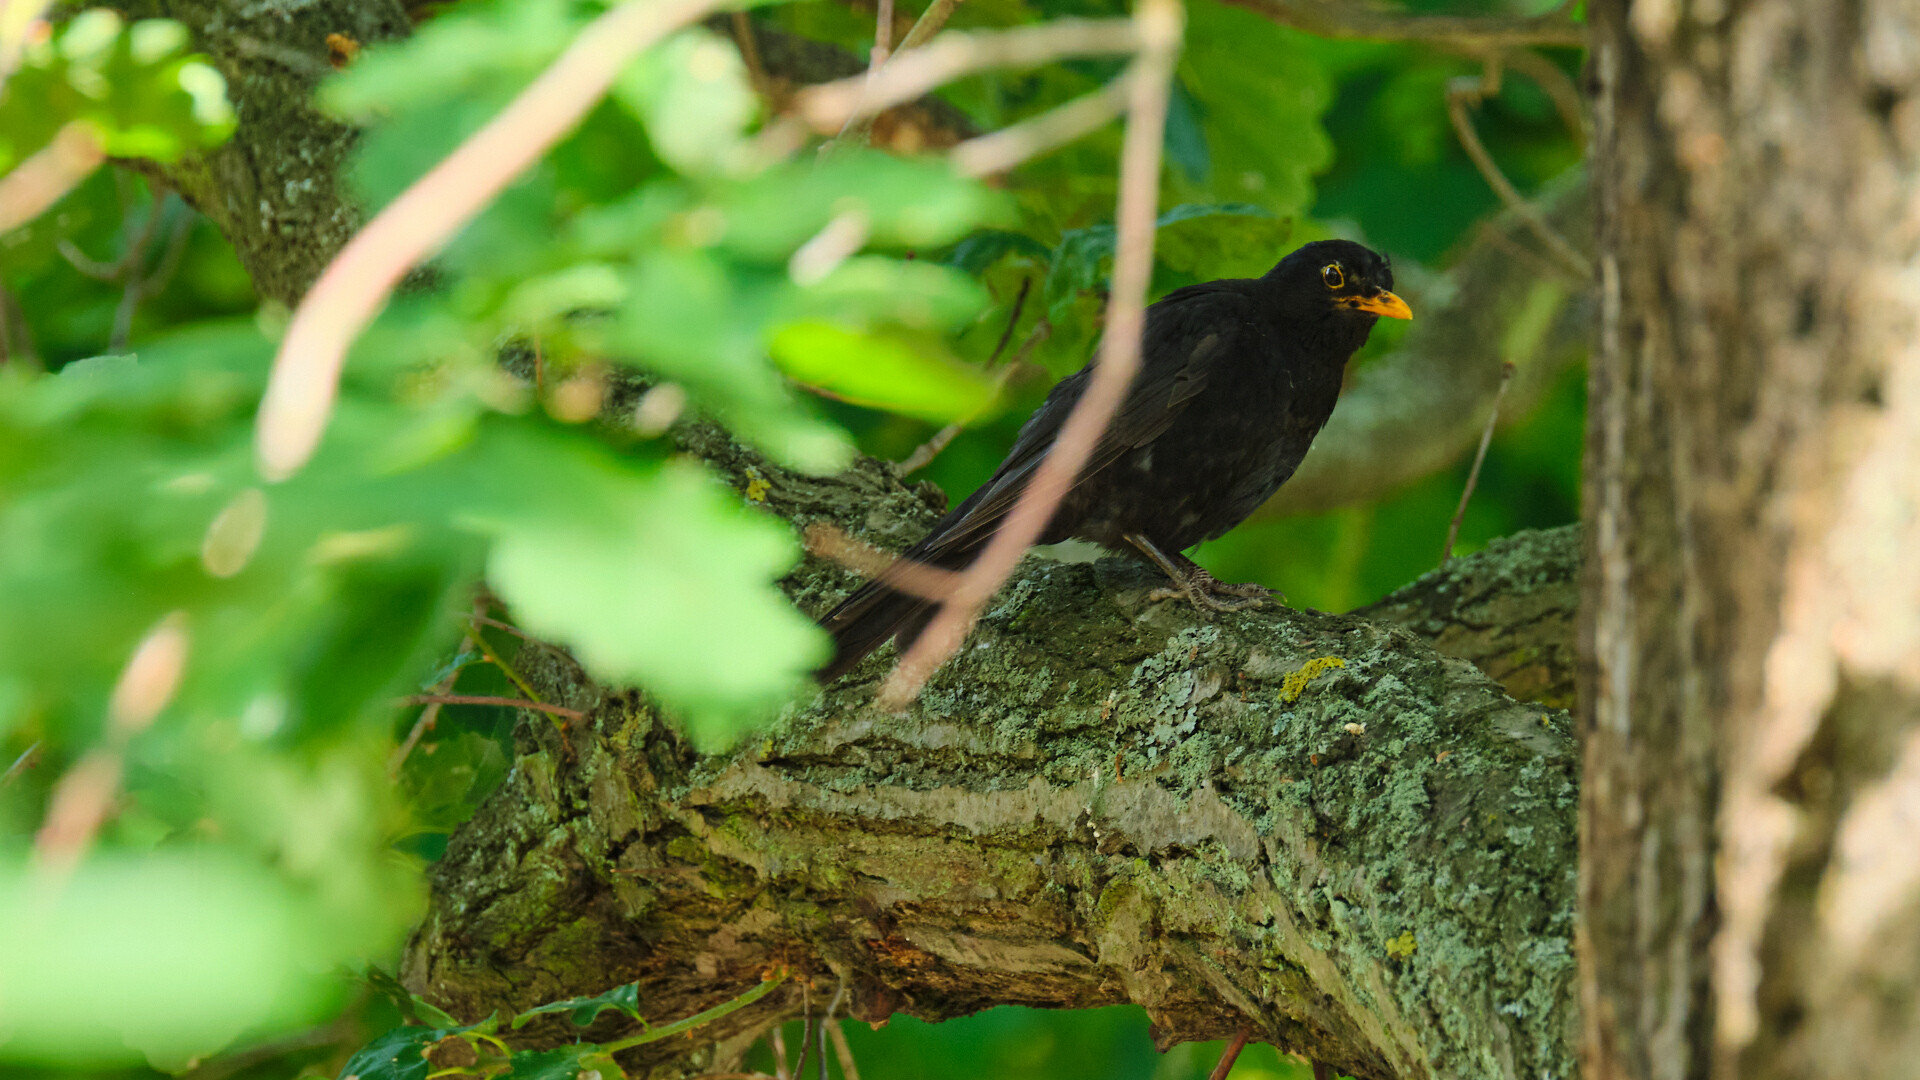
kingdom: Animalia
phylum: Chordata
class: Aves
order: Passeriformes
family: Turdidae
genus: Turdus
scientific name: Turdus merula
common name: Common blackbird
